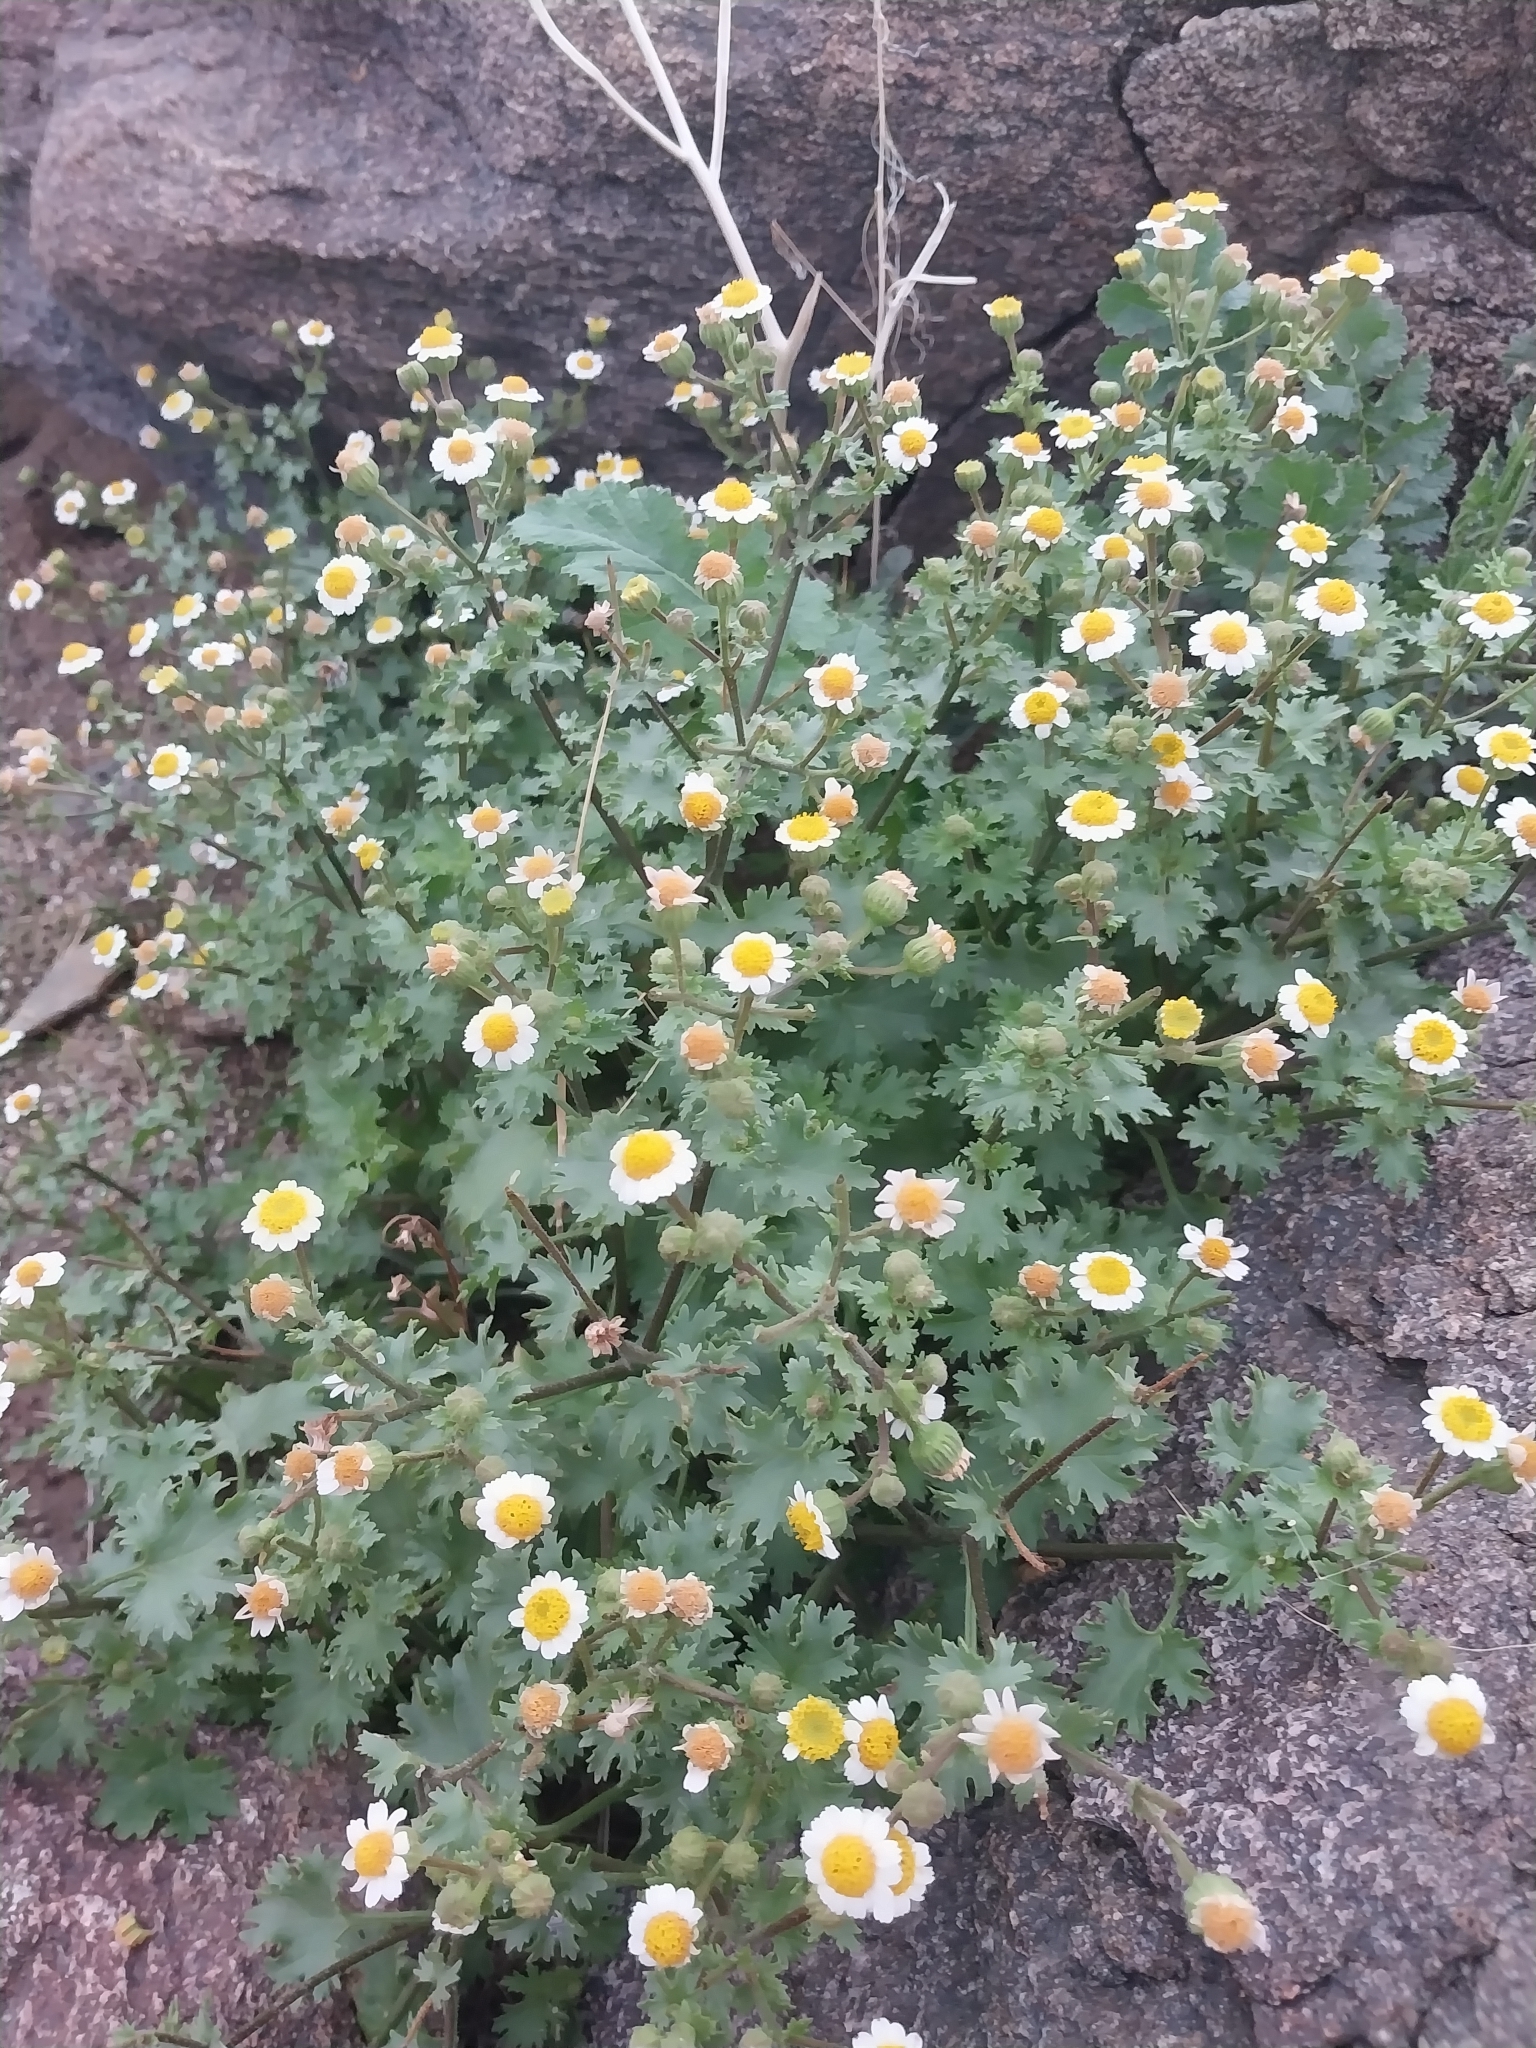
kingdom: Plantae
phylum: Tracheophyta
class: Magnoliopsida
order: Asterales
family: Asteraceae
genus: Laphamia
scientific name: Laphamia emoryi
